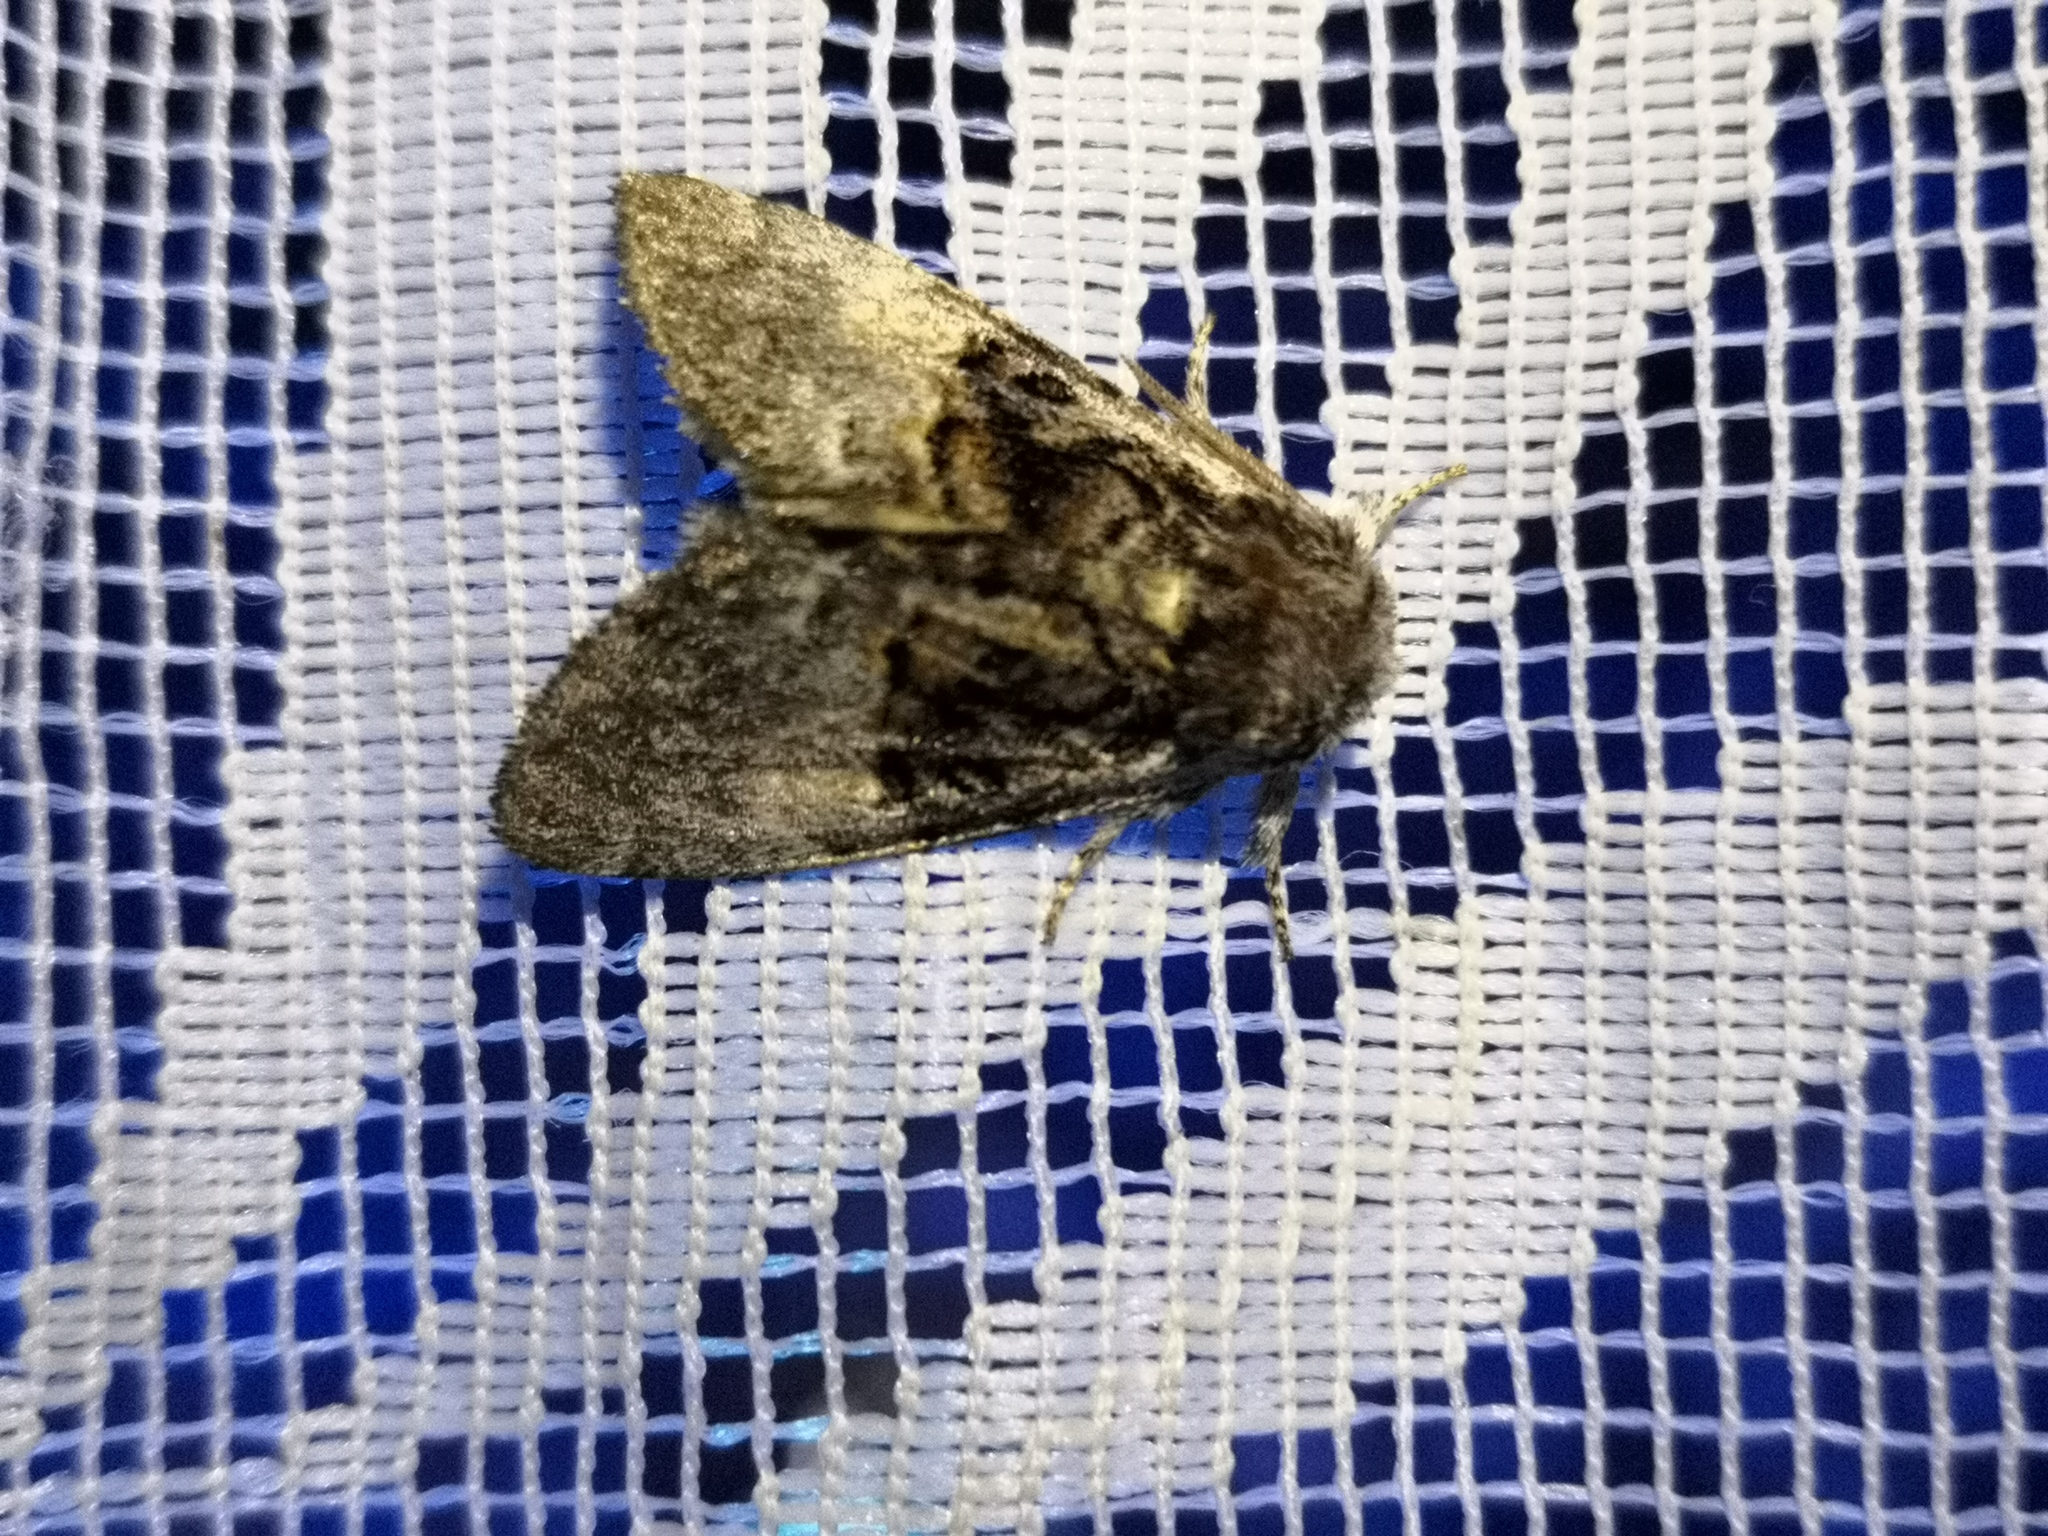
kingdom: Animalia
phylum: Arthropoda
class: Insecta
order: Lepidoptera
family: Noctuidae
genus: Colocasia
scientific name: Colocasia coryli
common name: Nut-tree tussock
